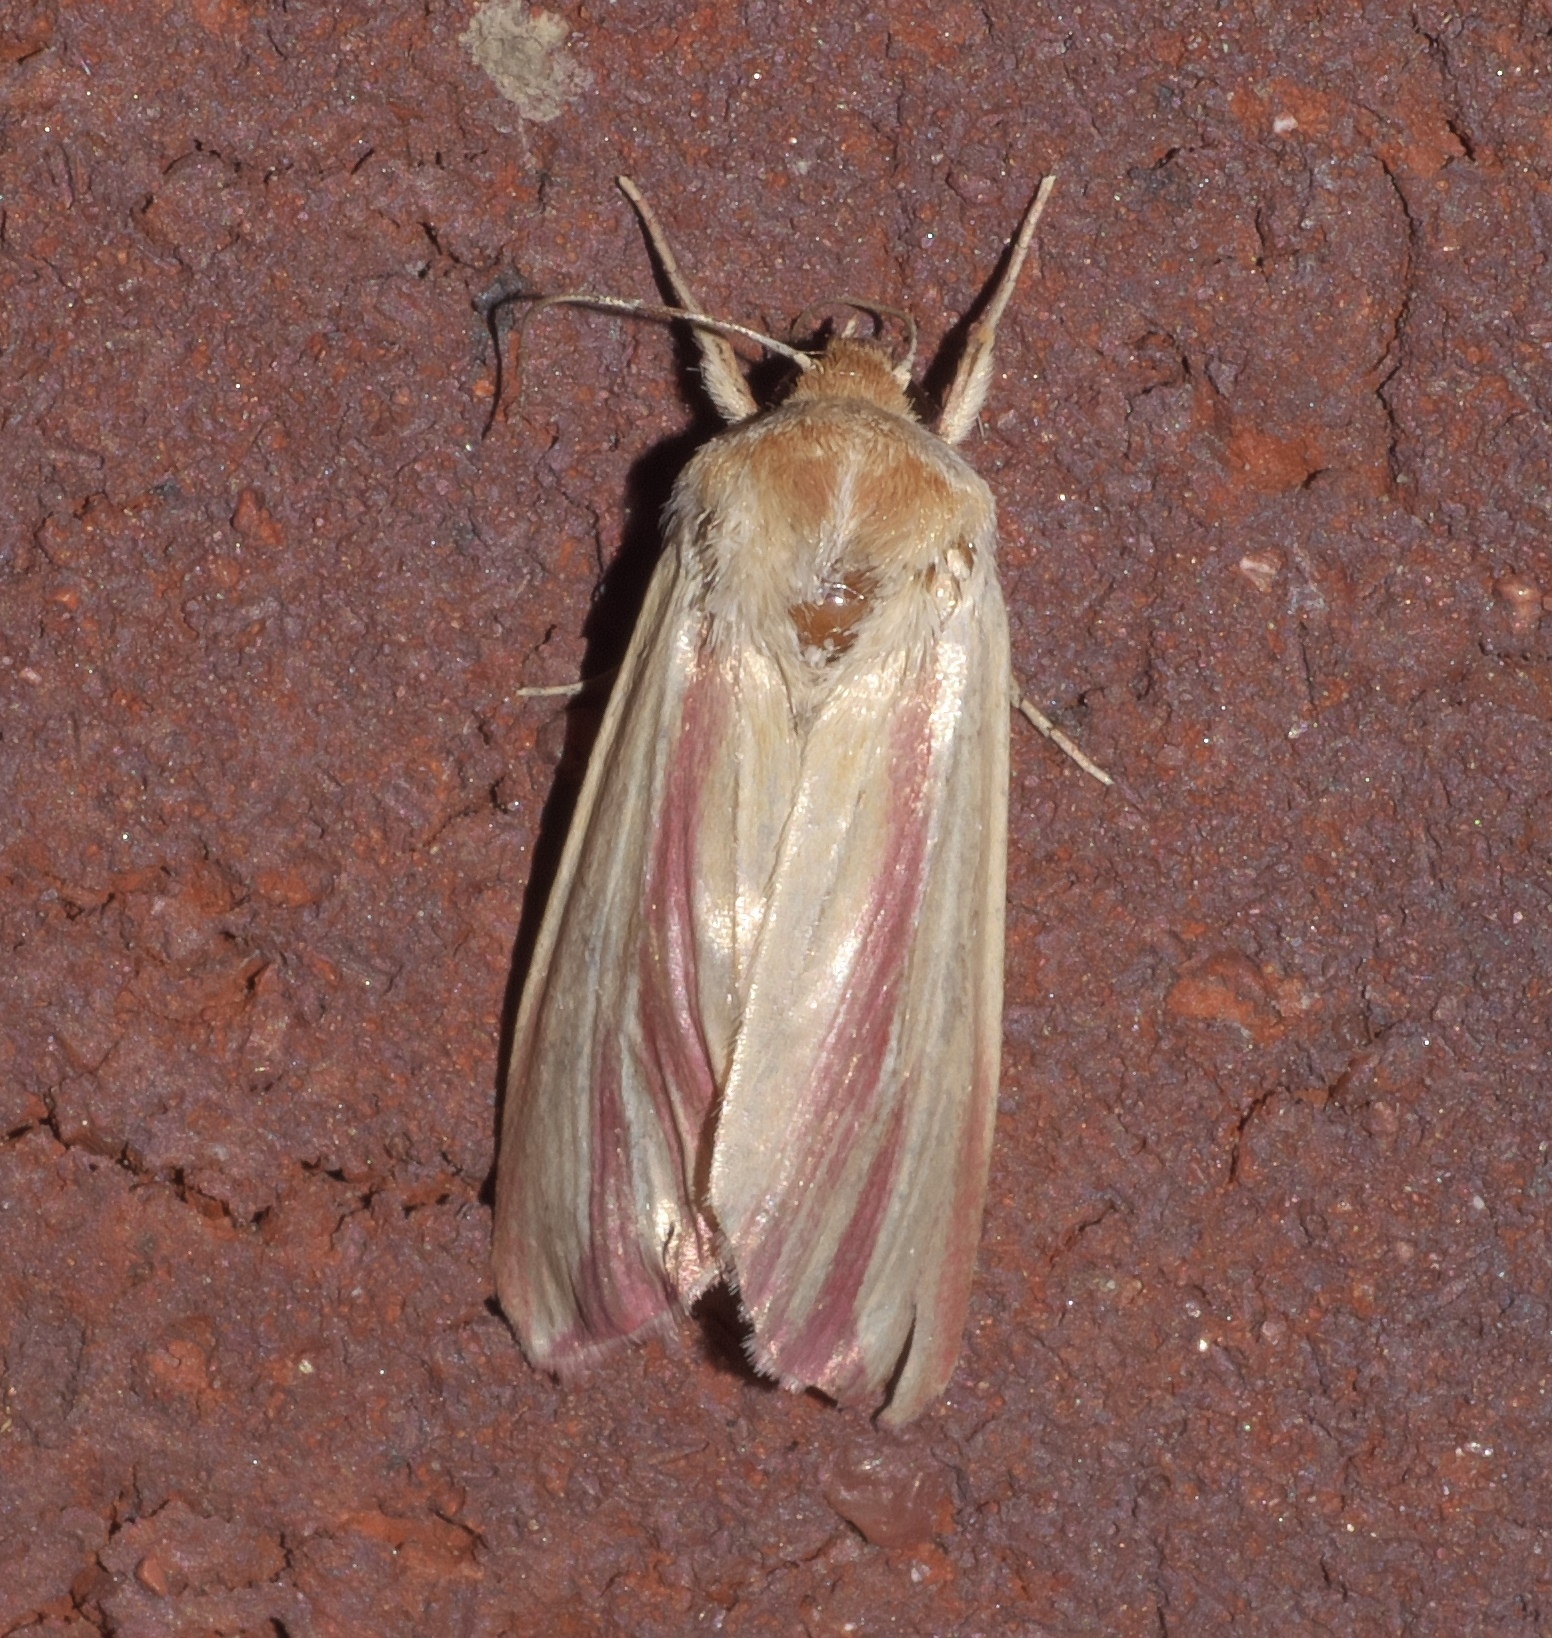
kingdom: Animalia
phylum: Arthropoda
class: Insecta
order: Lepidoptera
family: Noctuidae
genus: Dargida
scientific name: Dargida rubripennis
